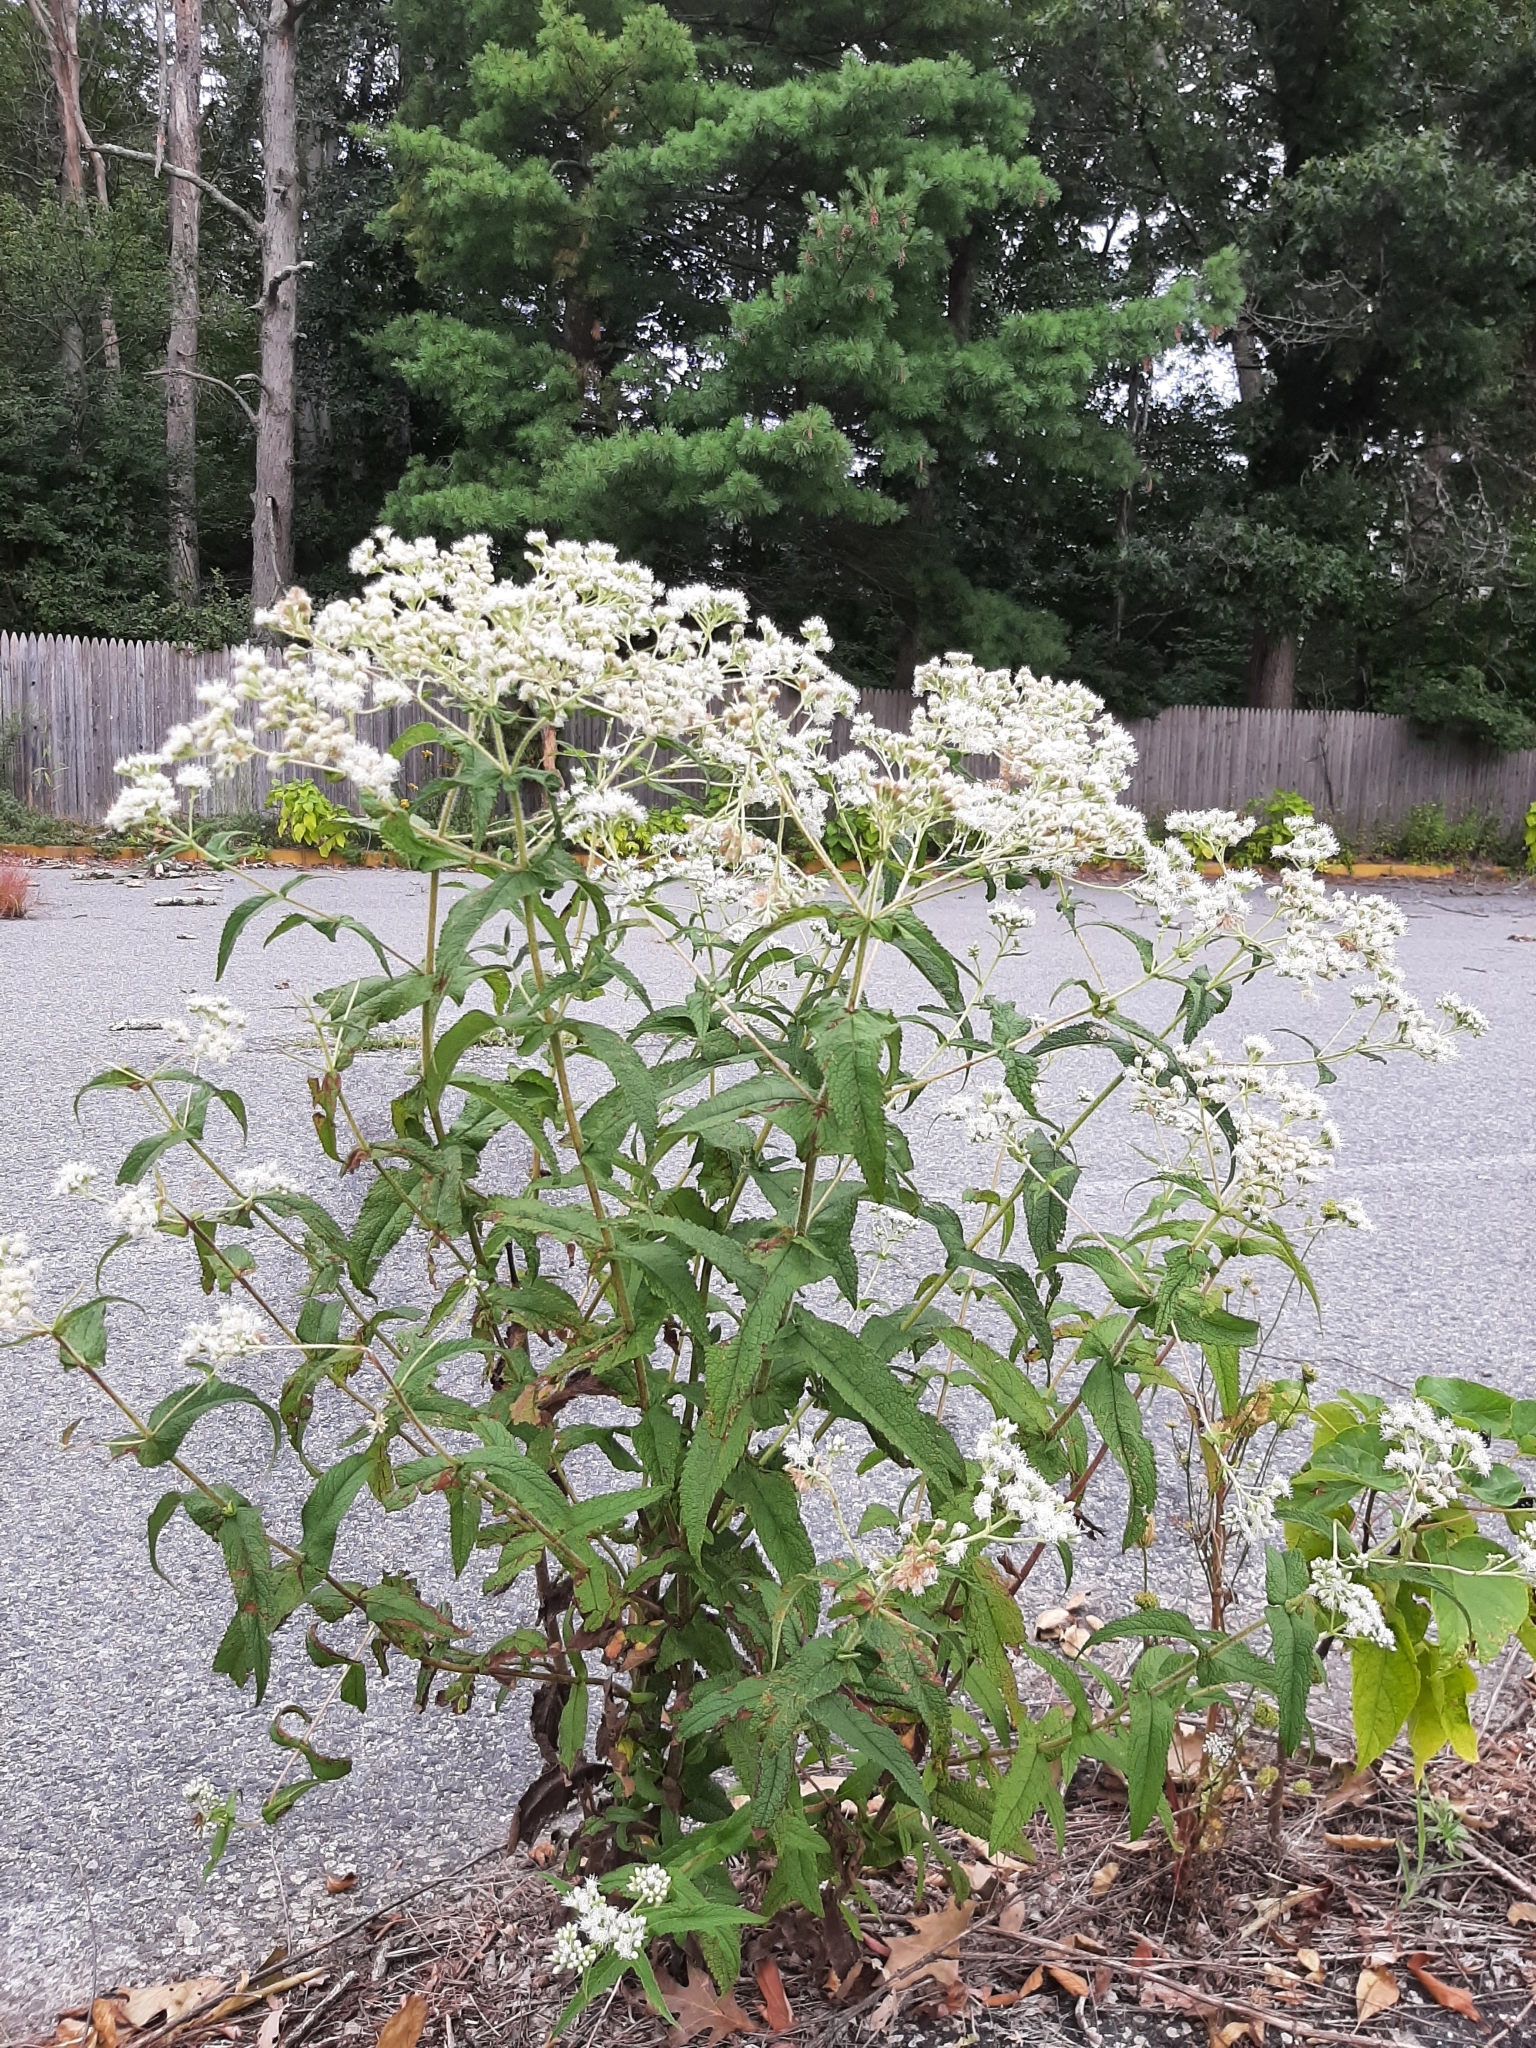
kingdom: Plantae
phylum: Tracheophyta
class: Magnoliopsida
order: Asterales
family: Asteraceae
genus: Eupatorium
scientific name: Eupatorium perfoliatum
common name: Boneset
